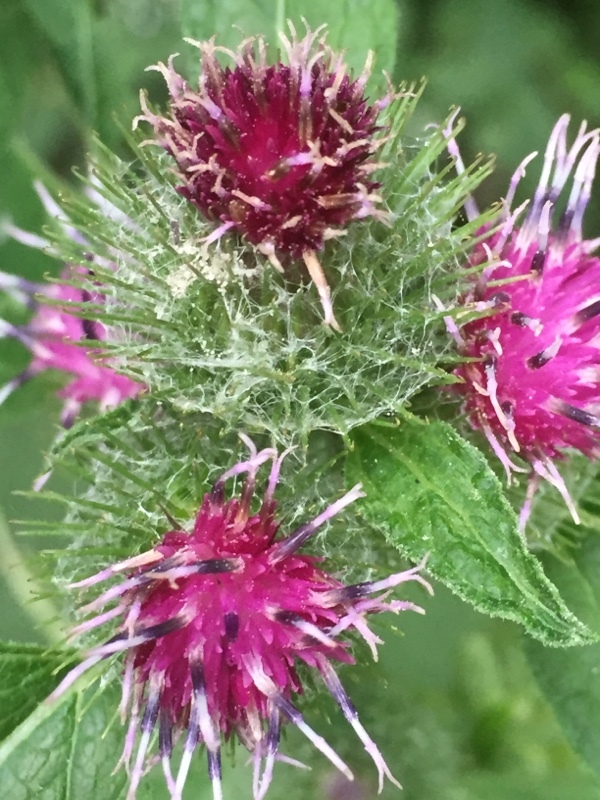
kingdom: Plantae
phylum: Tracheophyta
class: Magnoliopsida
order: Asterales
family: Asteraceae
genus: Arctium
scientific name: Arctium tomentosum
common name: Woolly burdock
